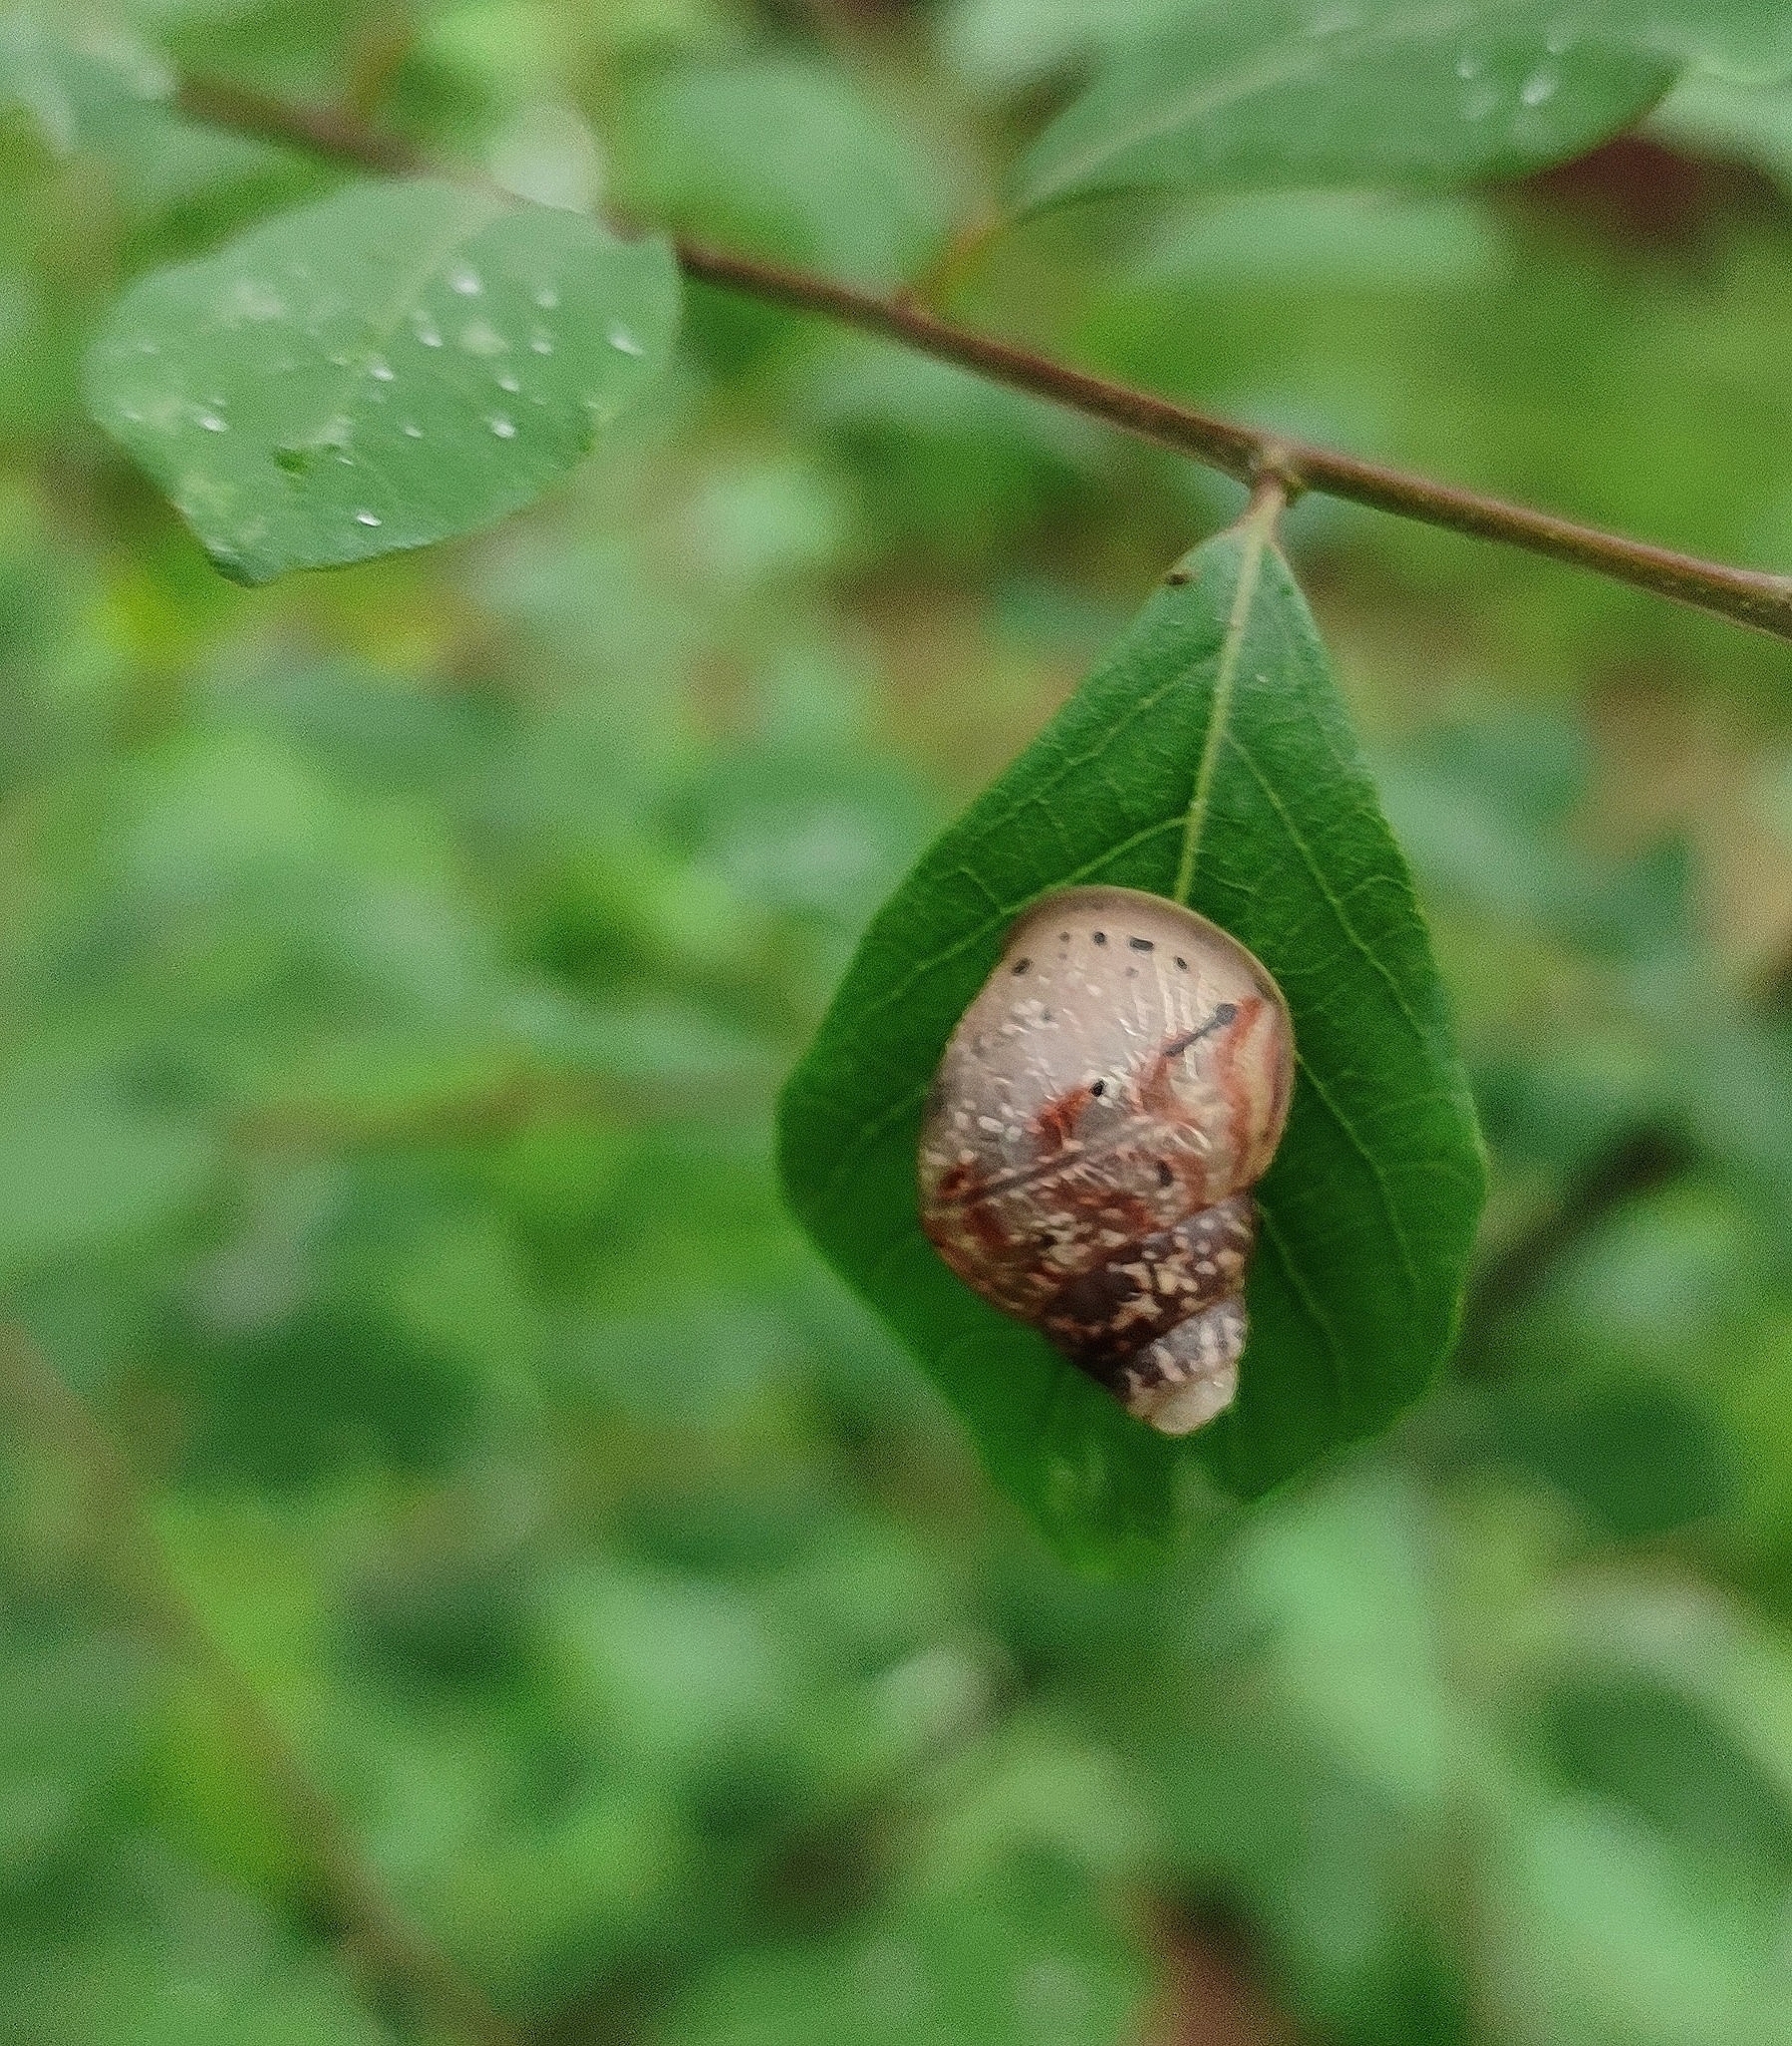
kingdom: Animalia
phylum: Mollusca
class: Gastropoda
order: Stylommatophora
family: Achatinidae
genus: Lissachatina
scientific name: Lissachatina fulica
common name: Giant african snail
